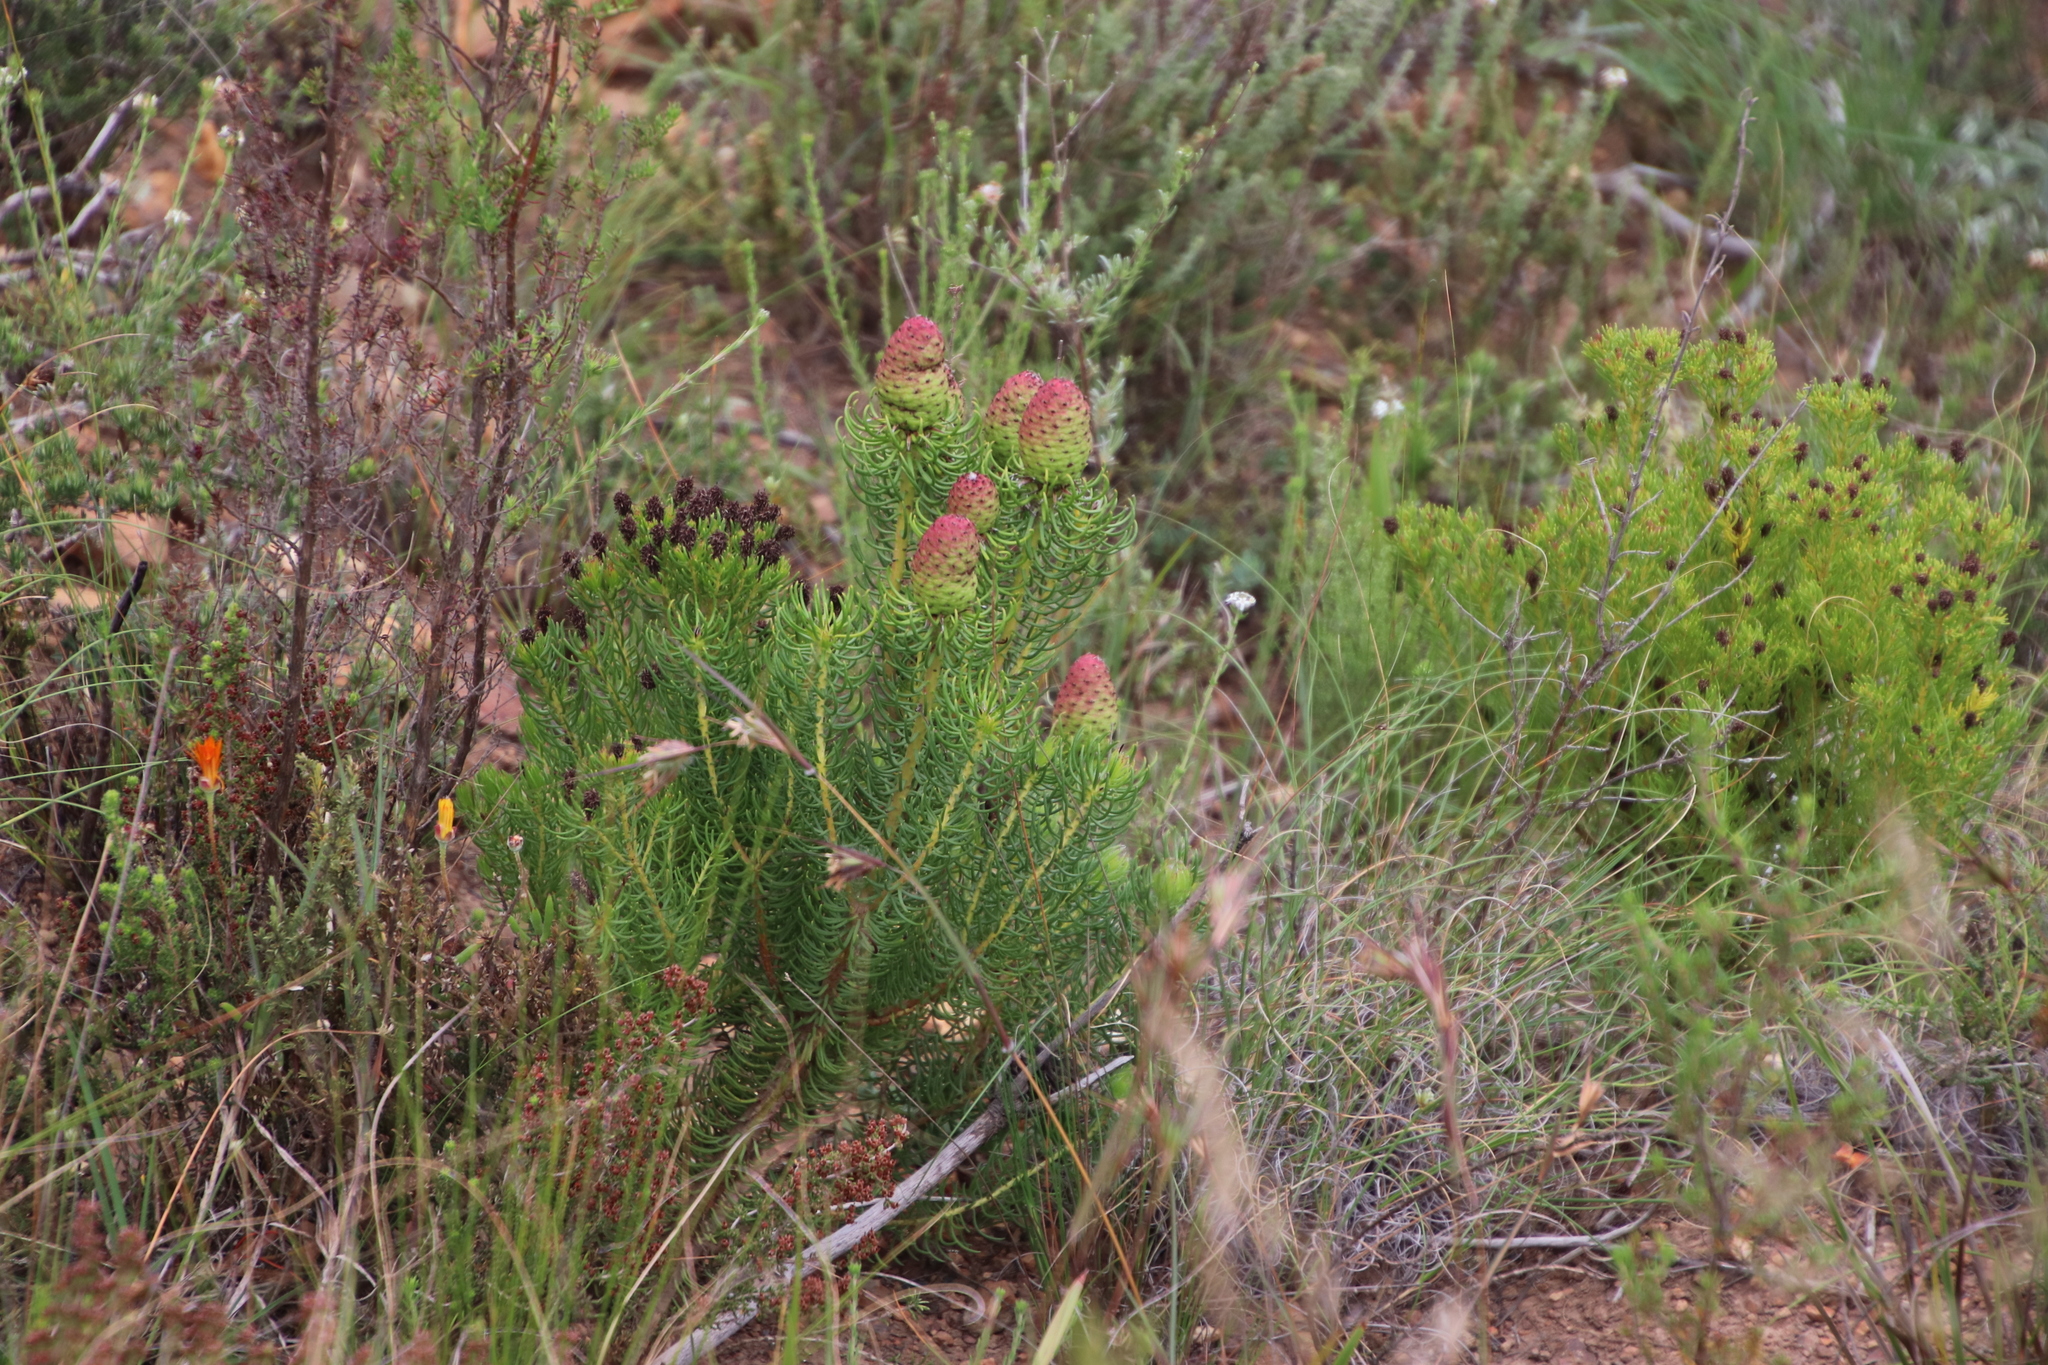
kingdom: Plantae
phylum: Tracheophyta
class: Magnoliopsida
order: Proteales
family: Proteaceae
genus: Leucadendron
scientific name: Leucadendron teretifolium
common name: Needle-leaf conebush
